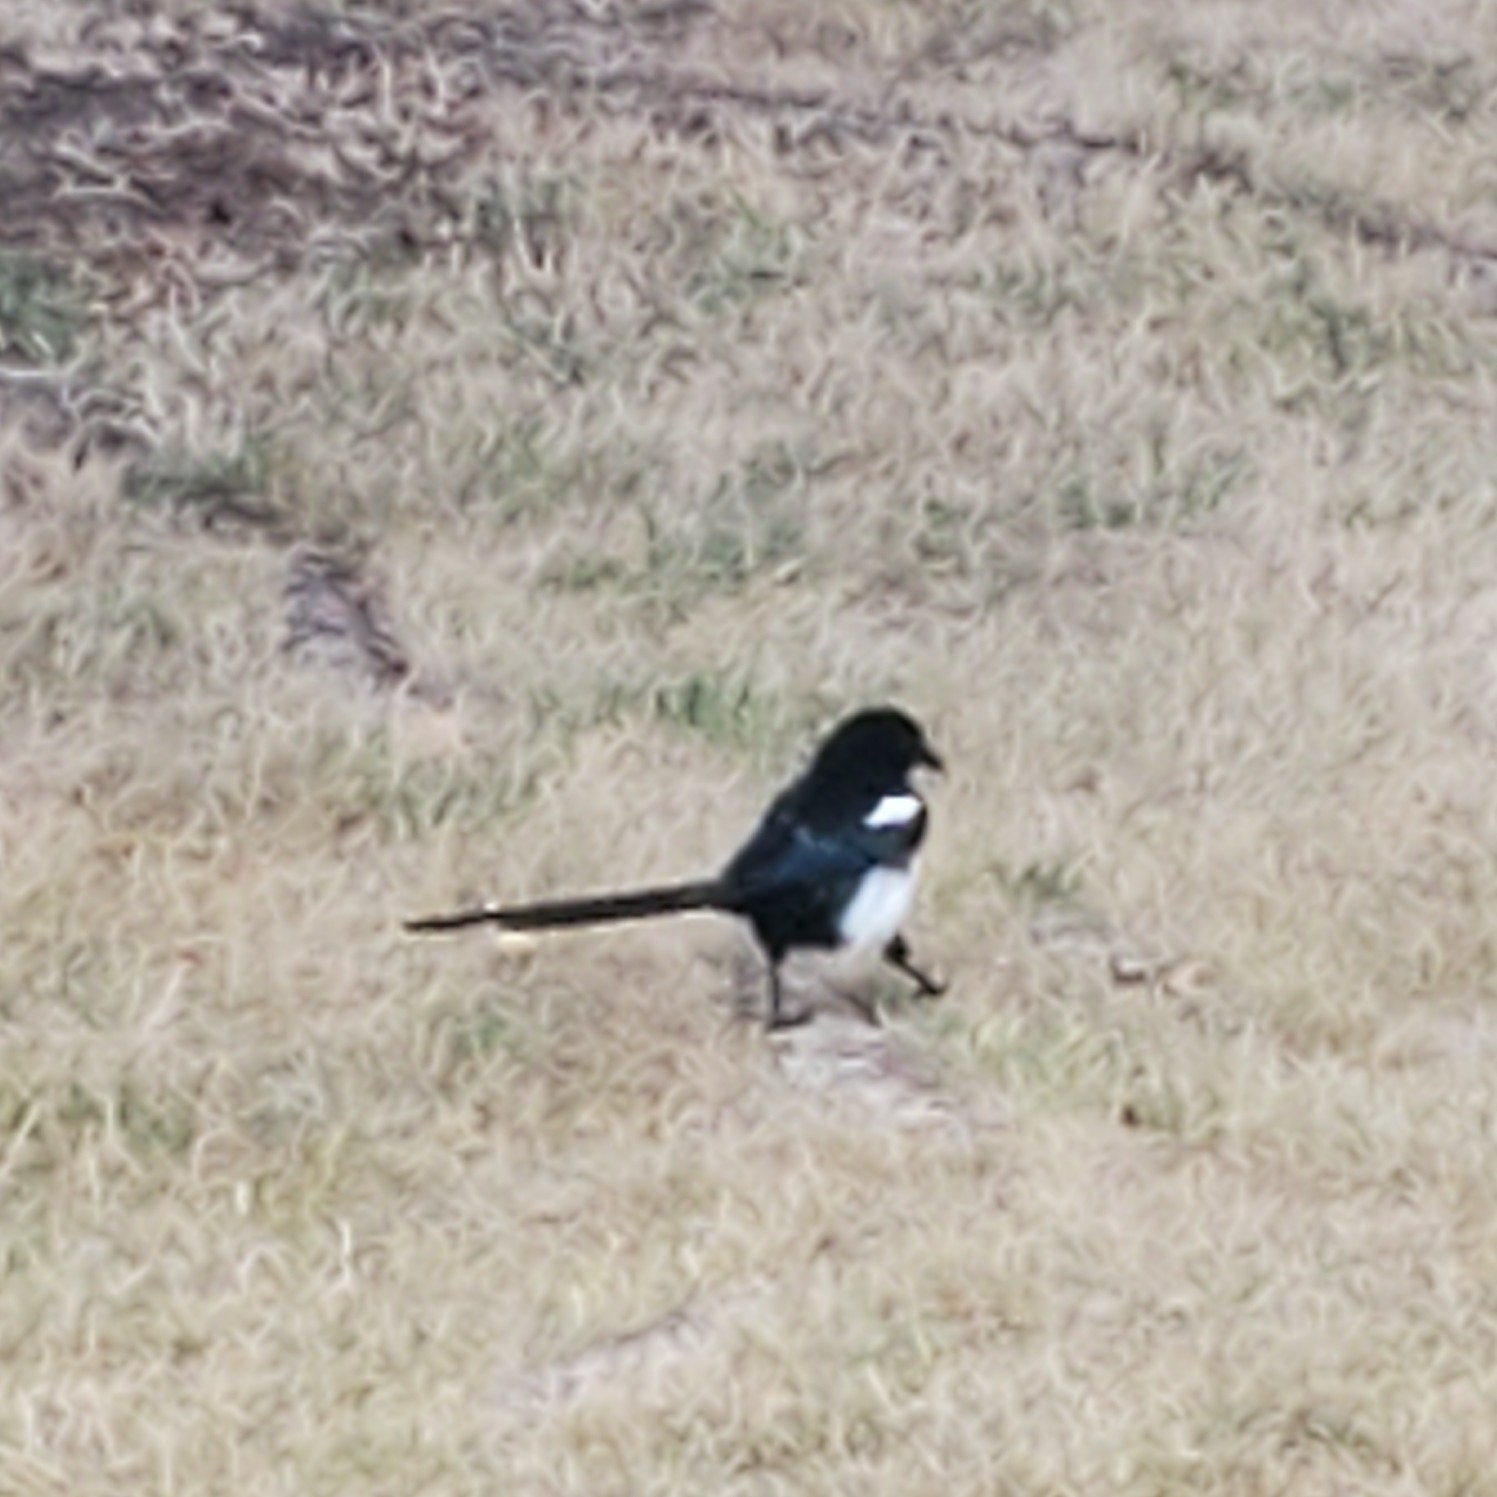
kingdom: Animalia
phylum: Chordata
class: Aves
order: Passeriformes
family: Corvidae
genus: Pica
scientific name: Pica hudsonia
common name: Black-billed magpie
